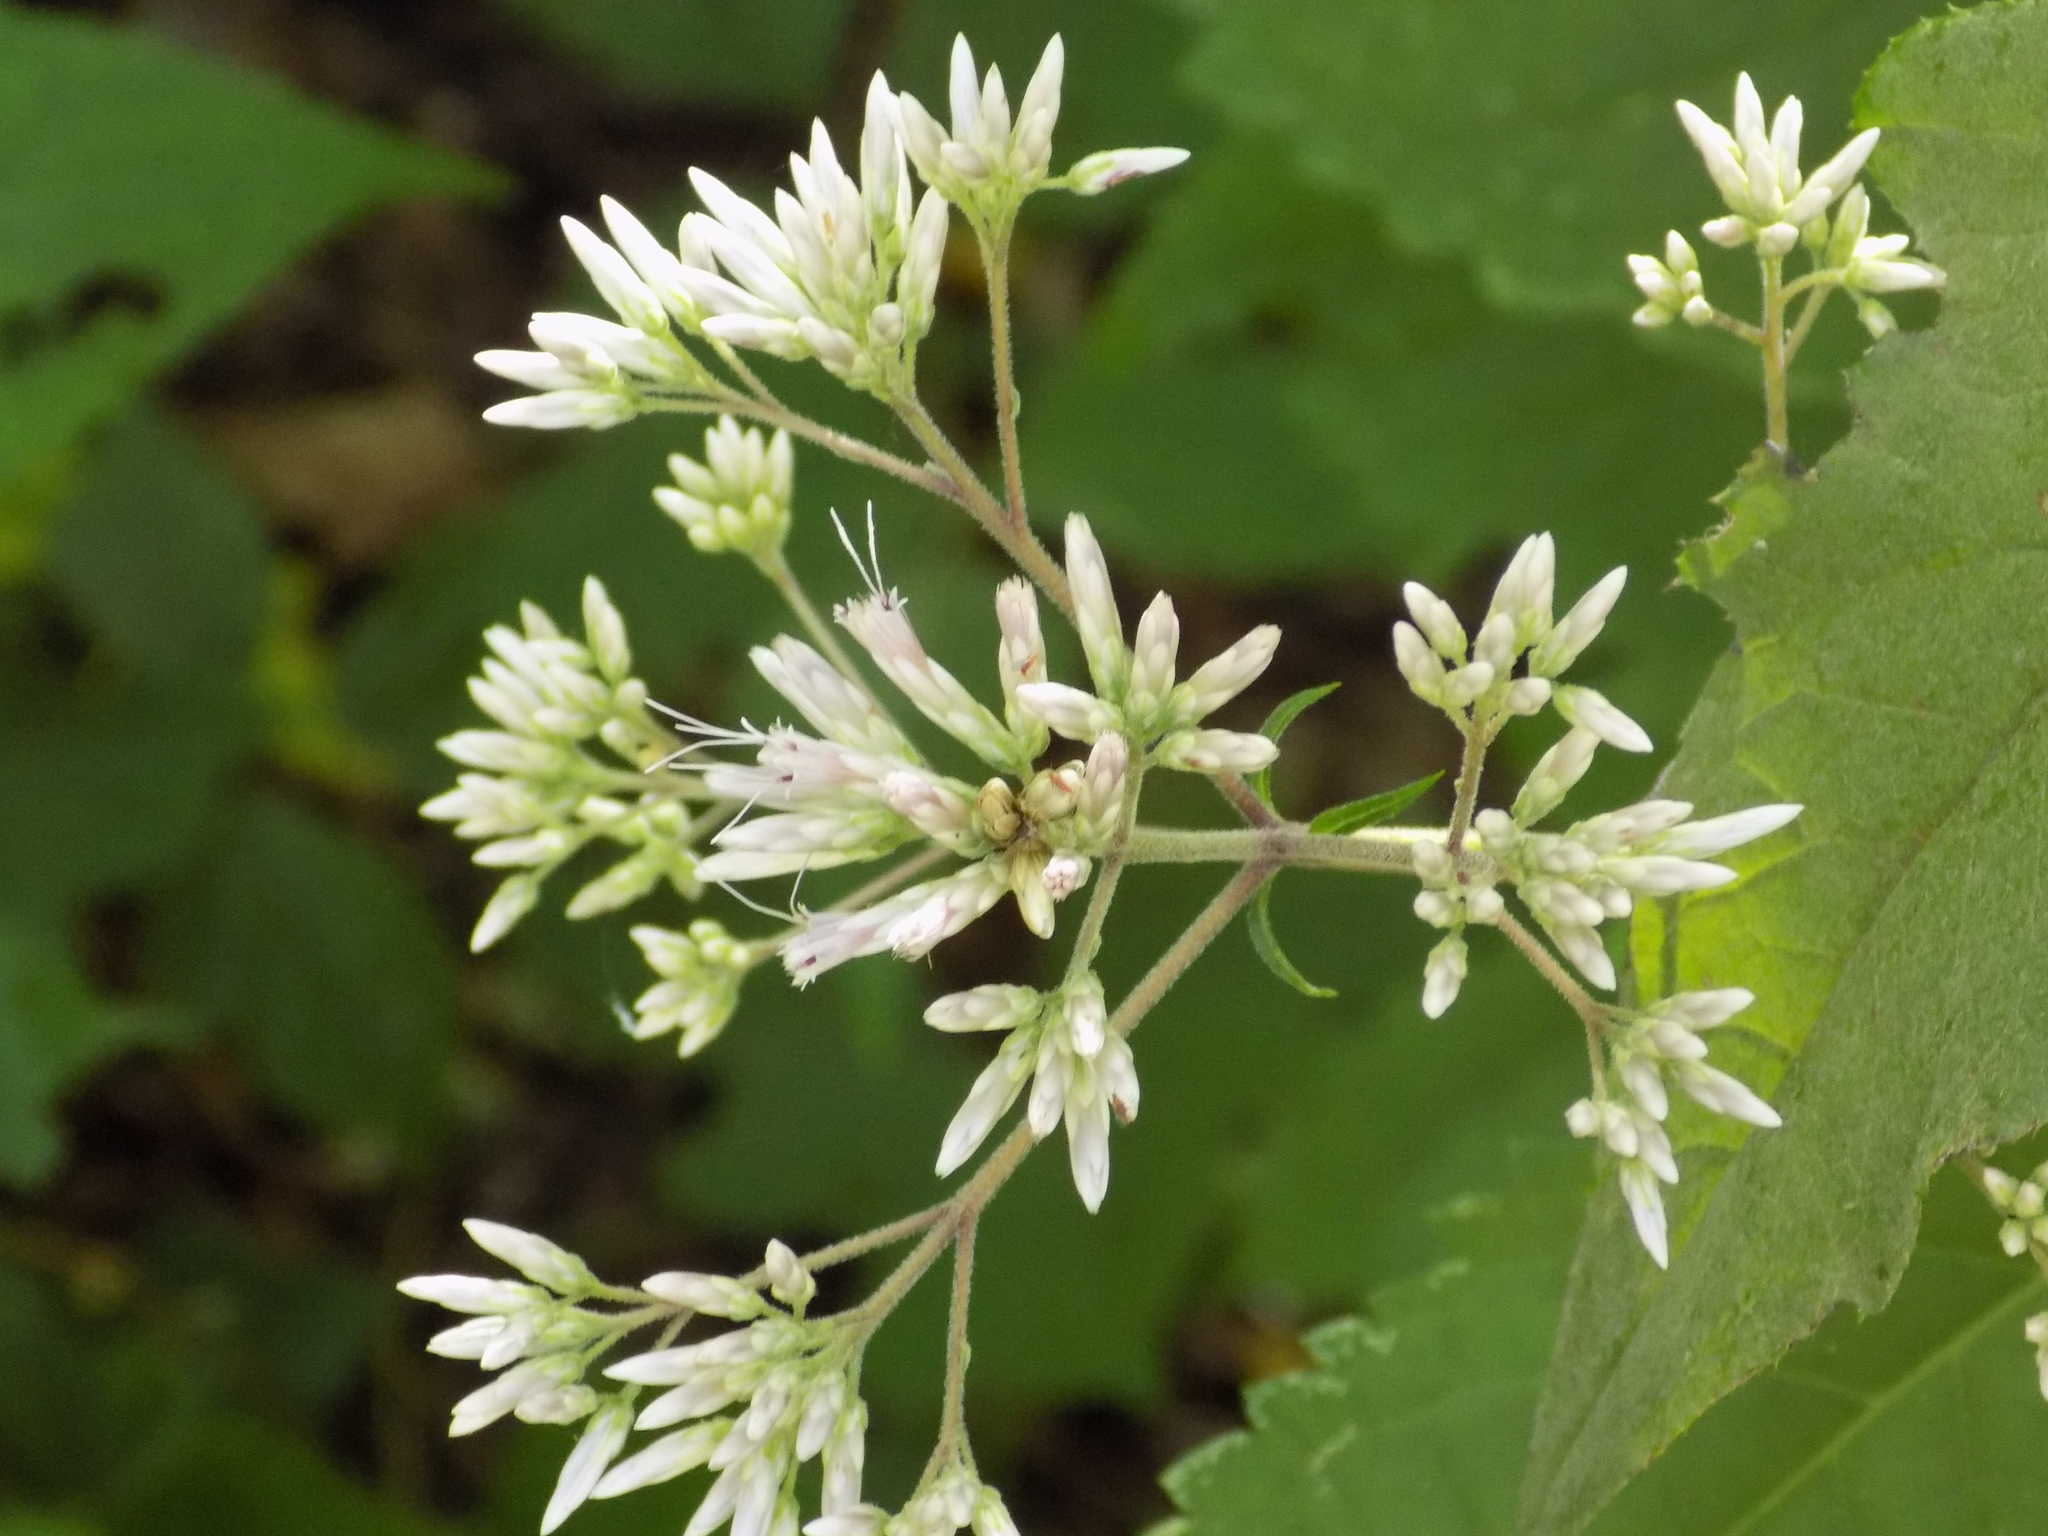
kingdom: Plantae
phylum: Tracheophyta
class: Magnoliopsida
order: Asterales
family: Asteraceae
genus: Eutrochium
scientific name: Eutrochium purpureum
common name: Gravelroot
